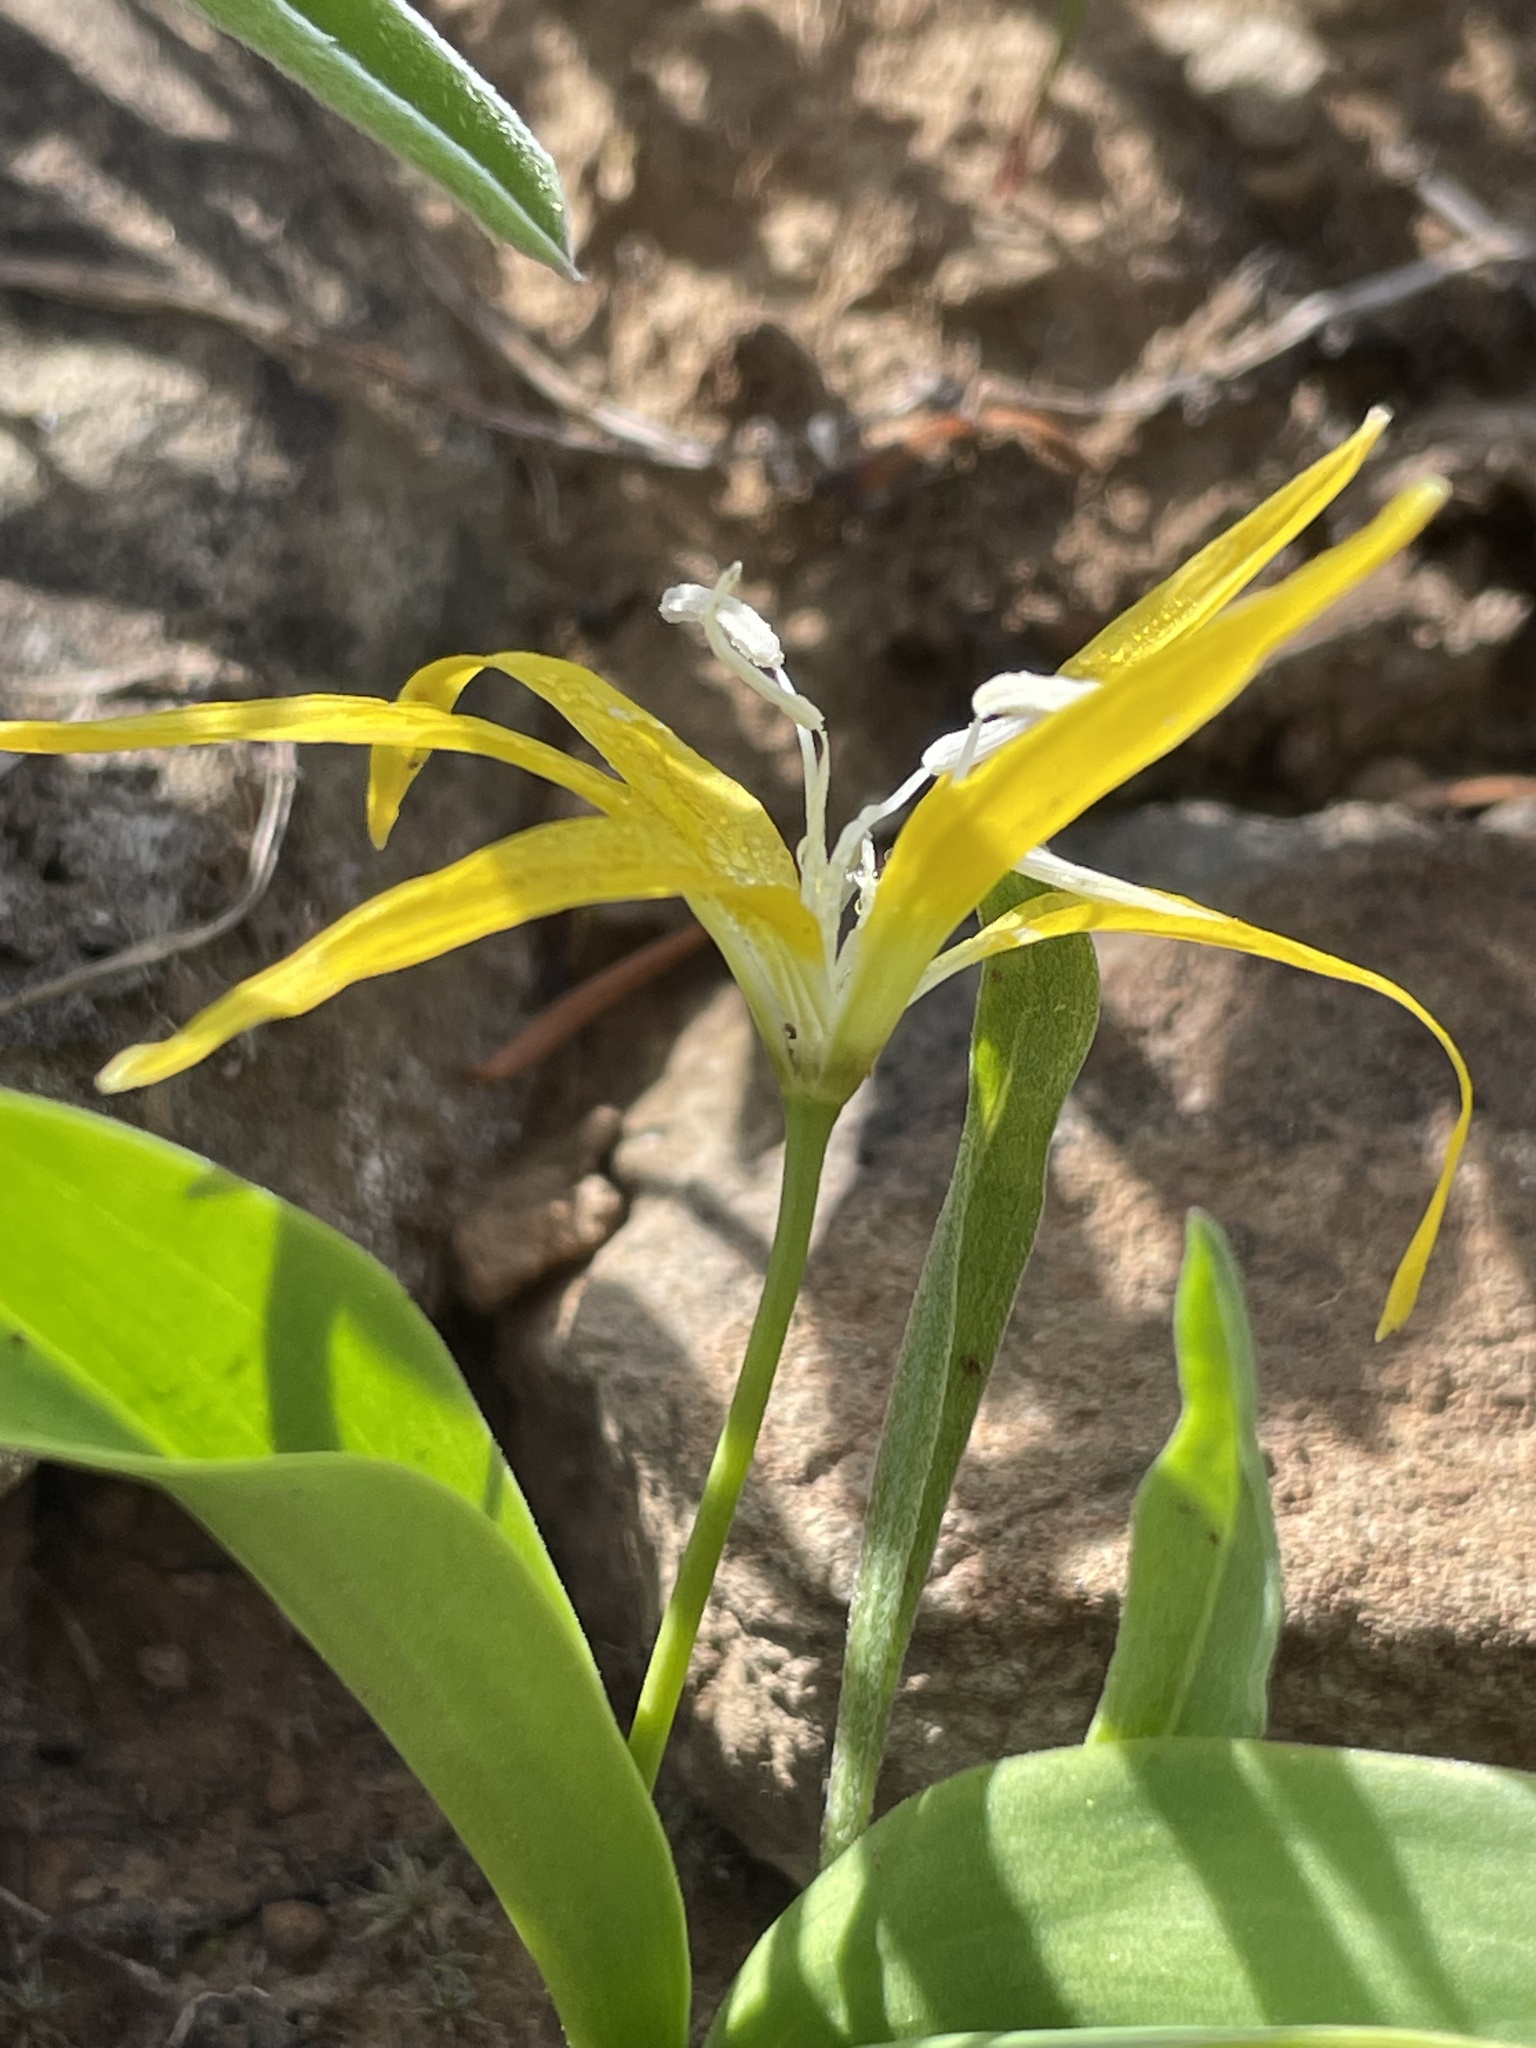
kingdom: Plantae
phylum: Tracheophyta
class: Liliopsida
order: Liliales
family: Liliaceae
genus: Erythronium
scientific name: Erythronium grandiflorum
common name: Avalanche-lily
